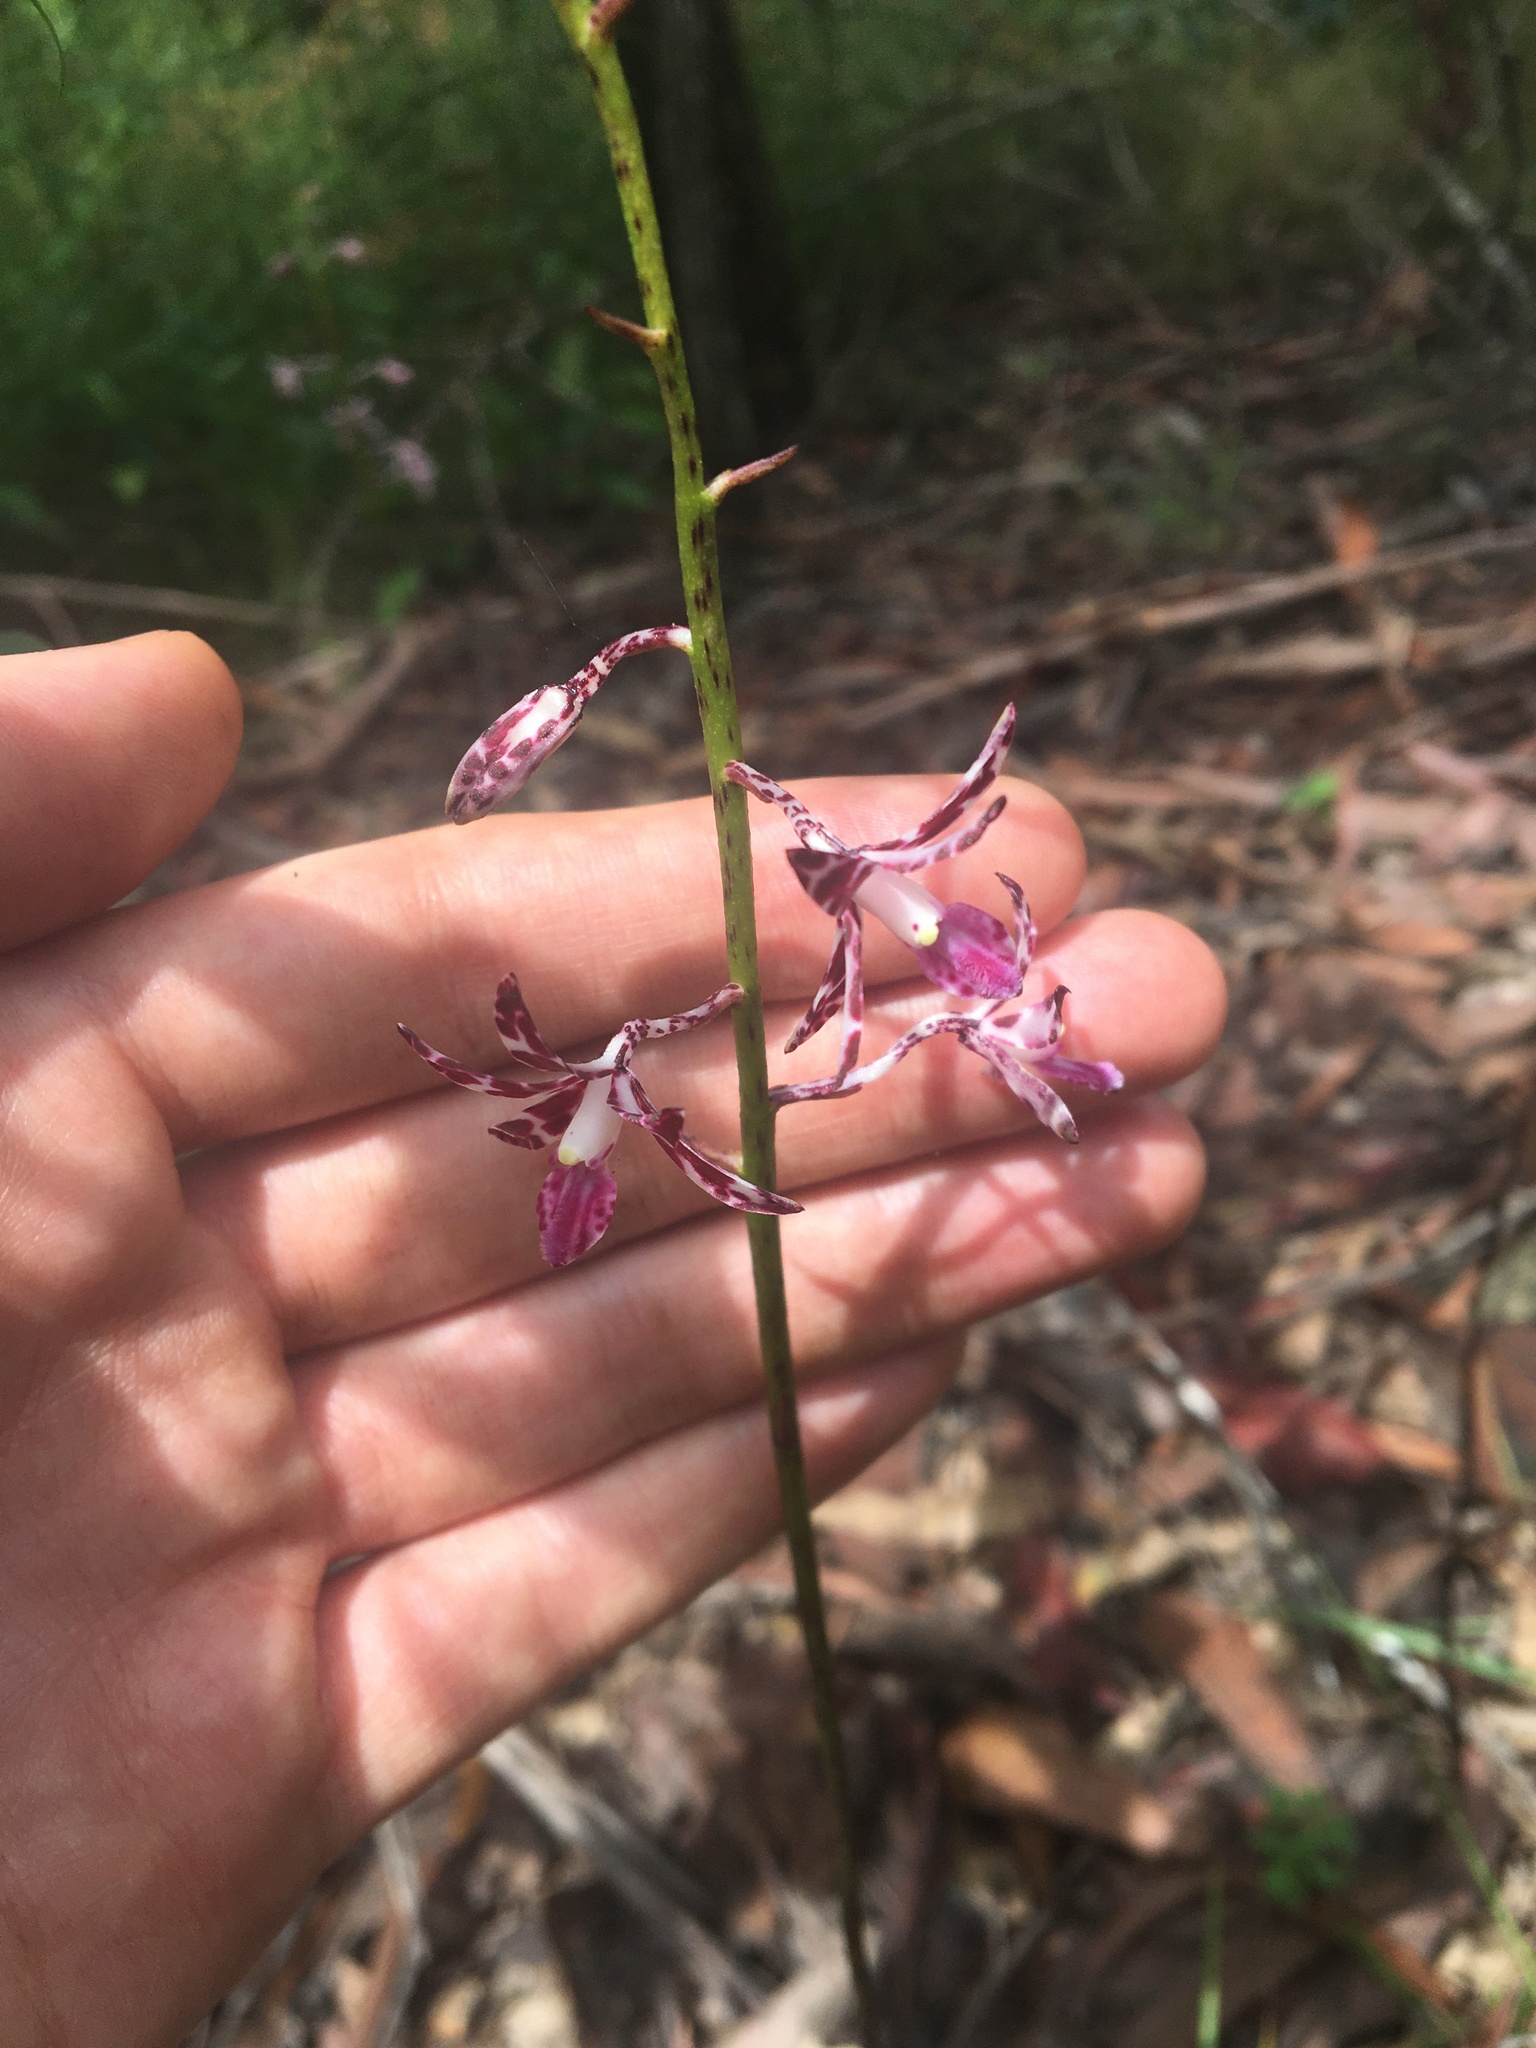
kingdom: Plantae
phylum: Tracheophyta
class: Liliopsida
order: Asparagales
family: Orchidaceae
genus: Dipodium
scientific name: Dipodium variegatum
